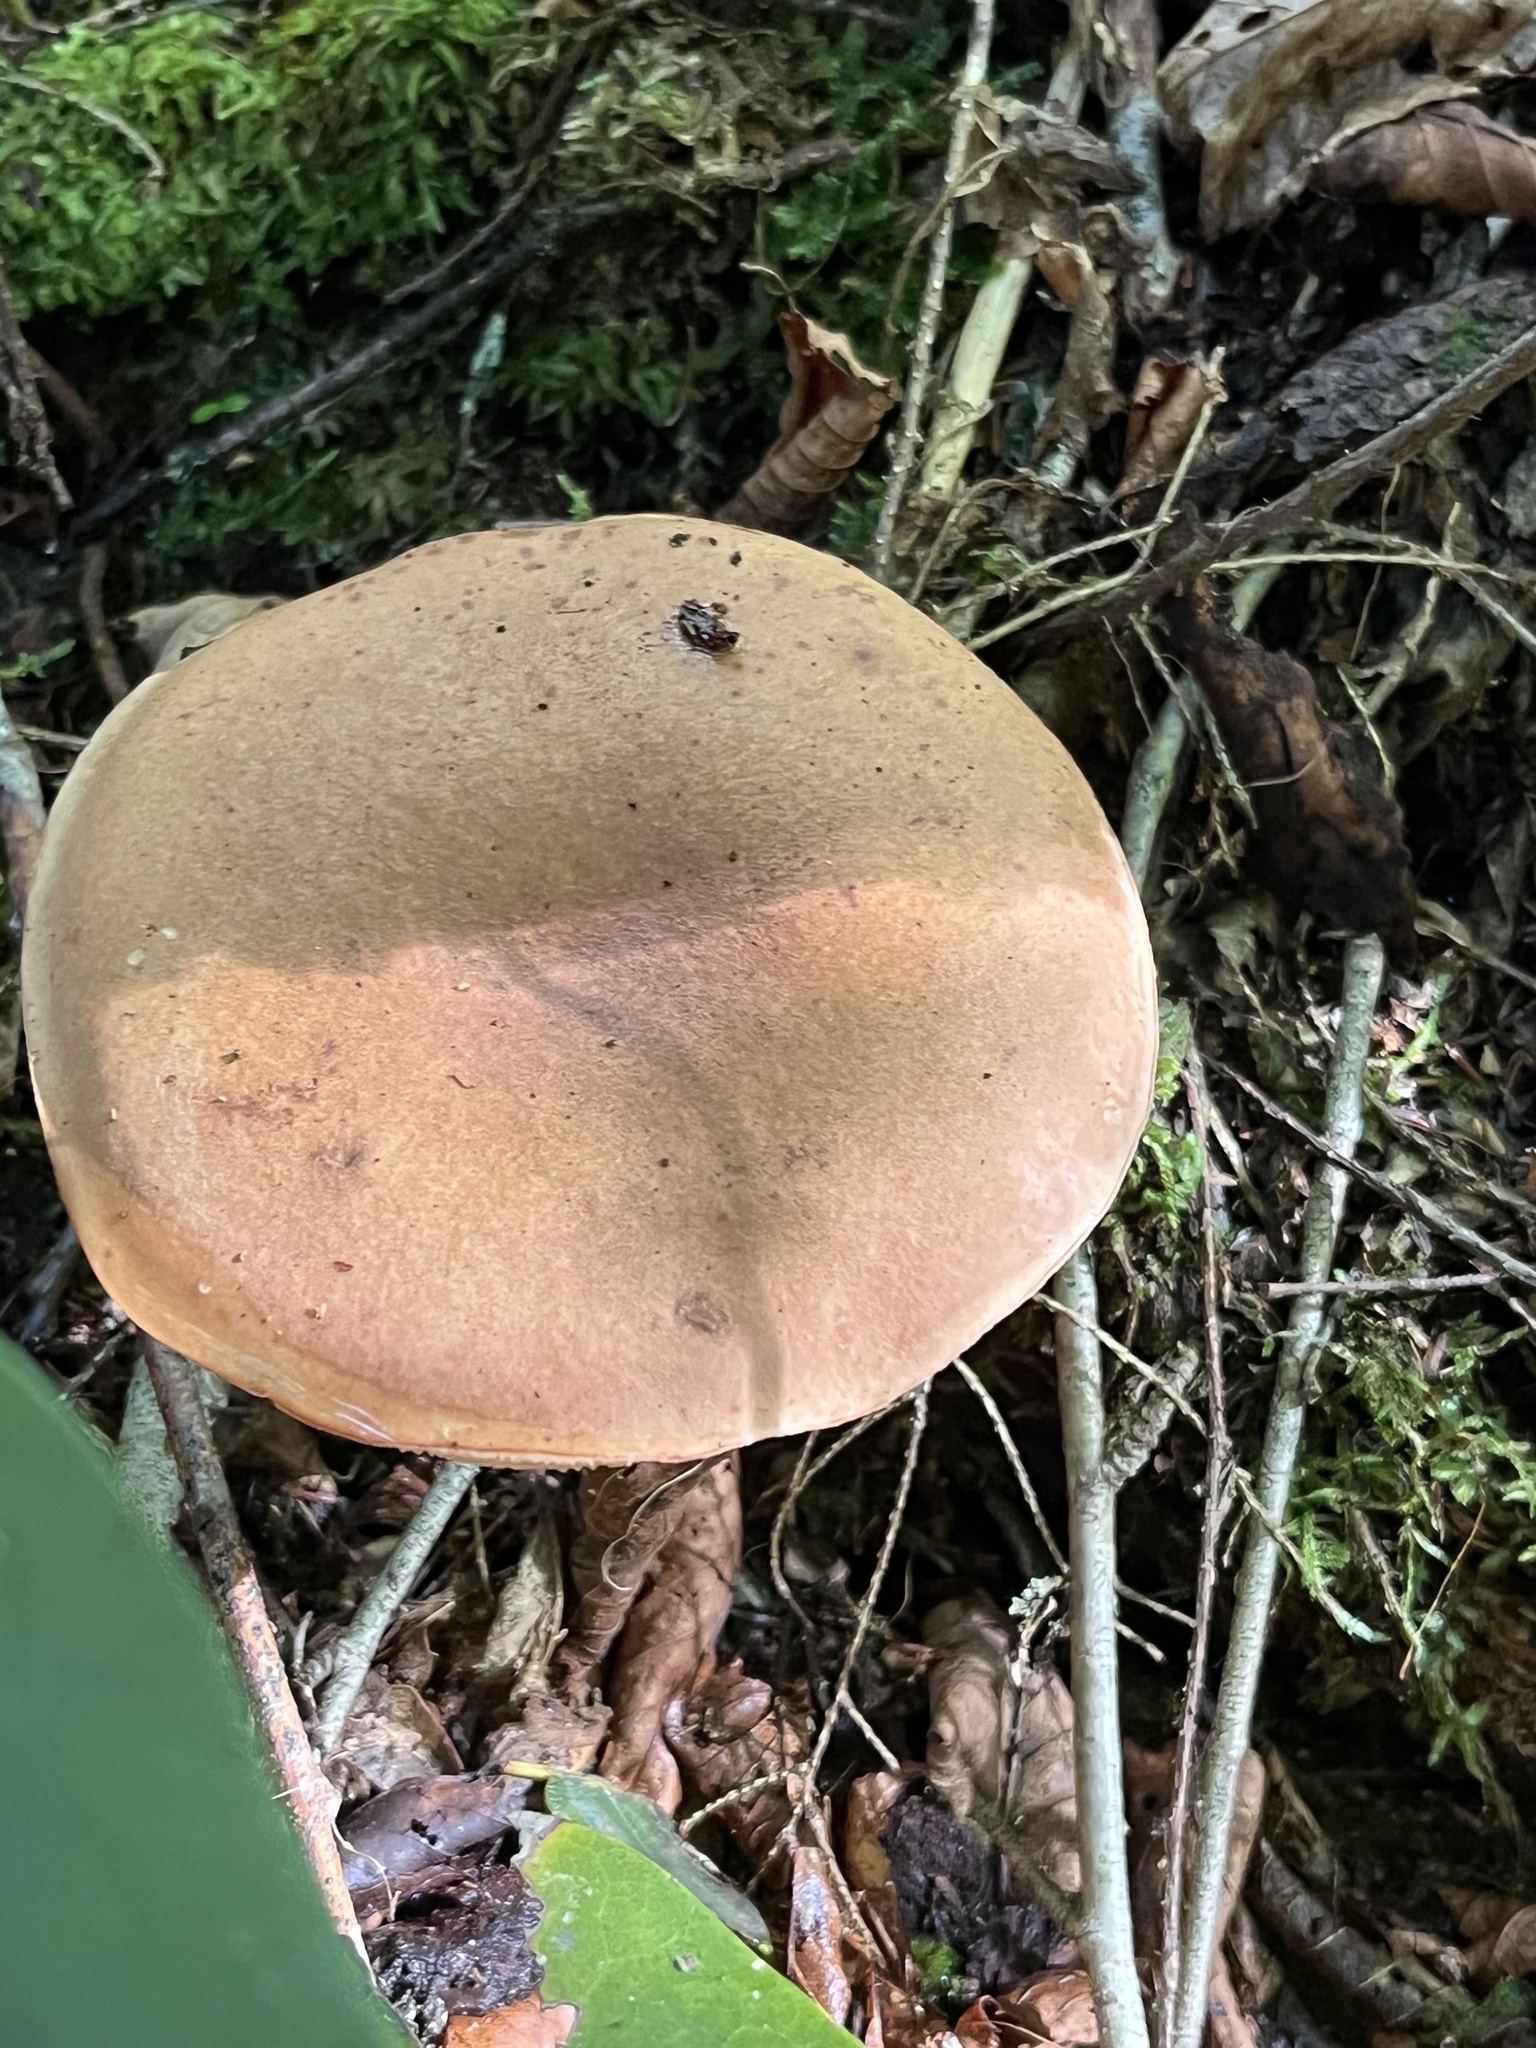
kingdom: Fungi
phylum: Basidiomycota
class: Agaricomycetes
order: Boletales
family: Boletaceae
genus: Tylopilus
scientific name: Tylopilus felleus
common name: Bitter bolete
